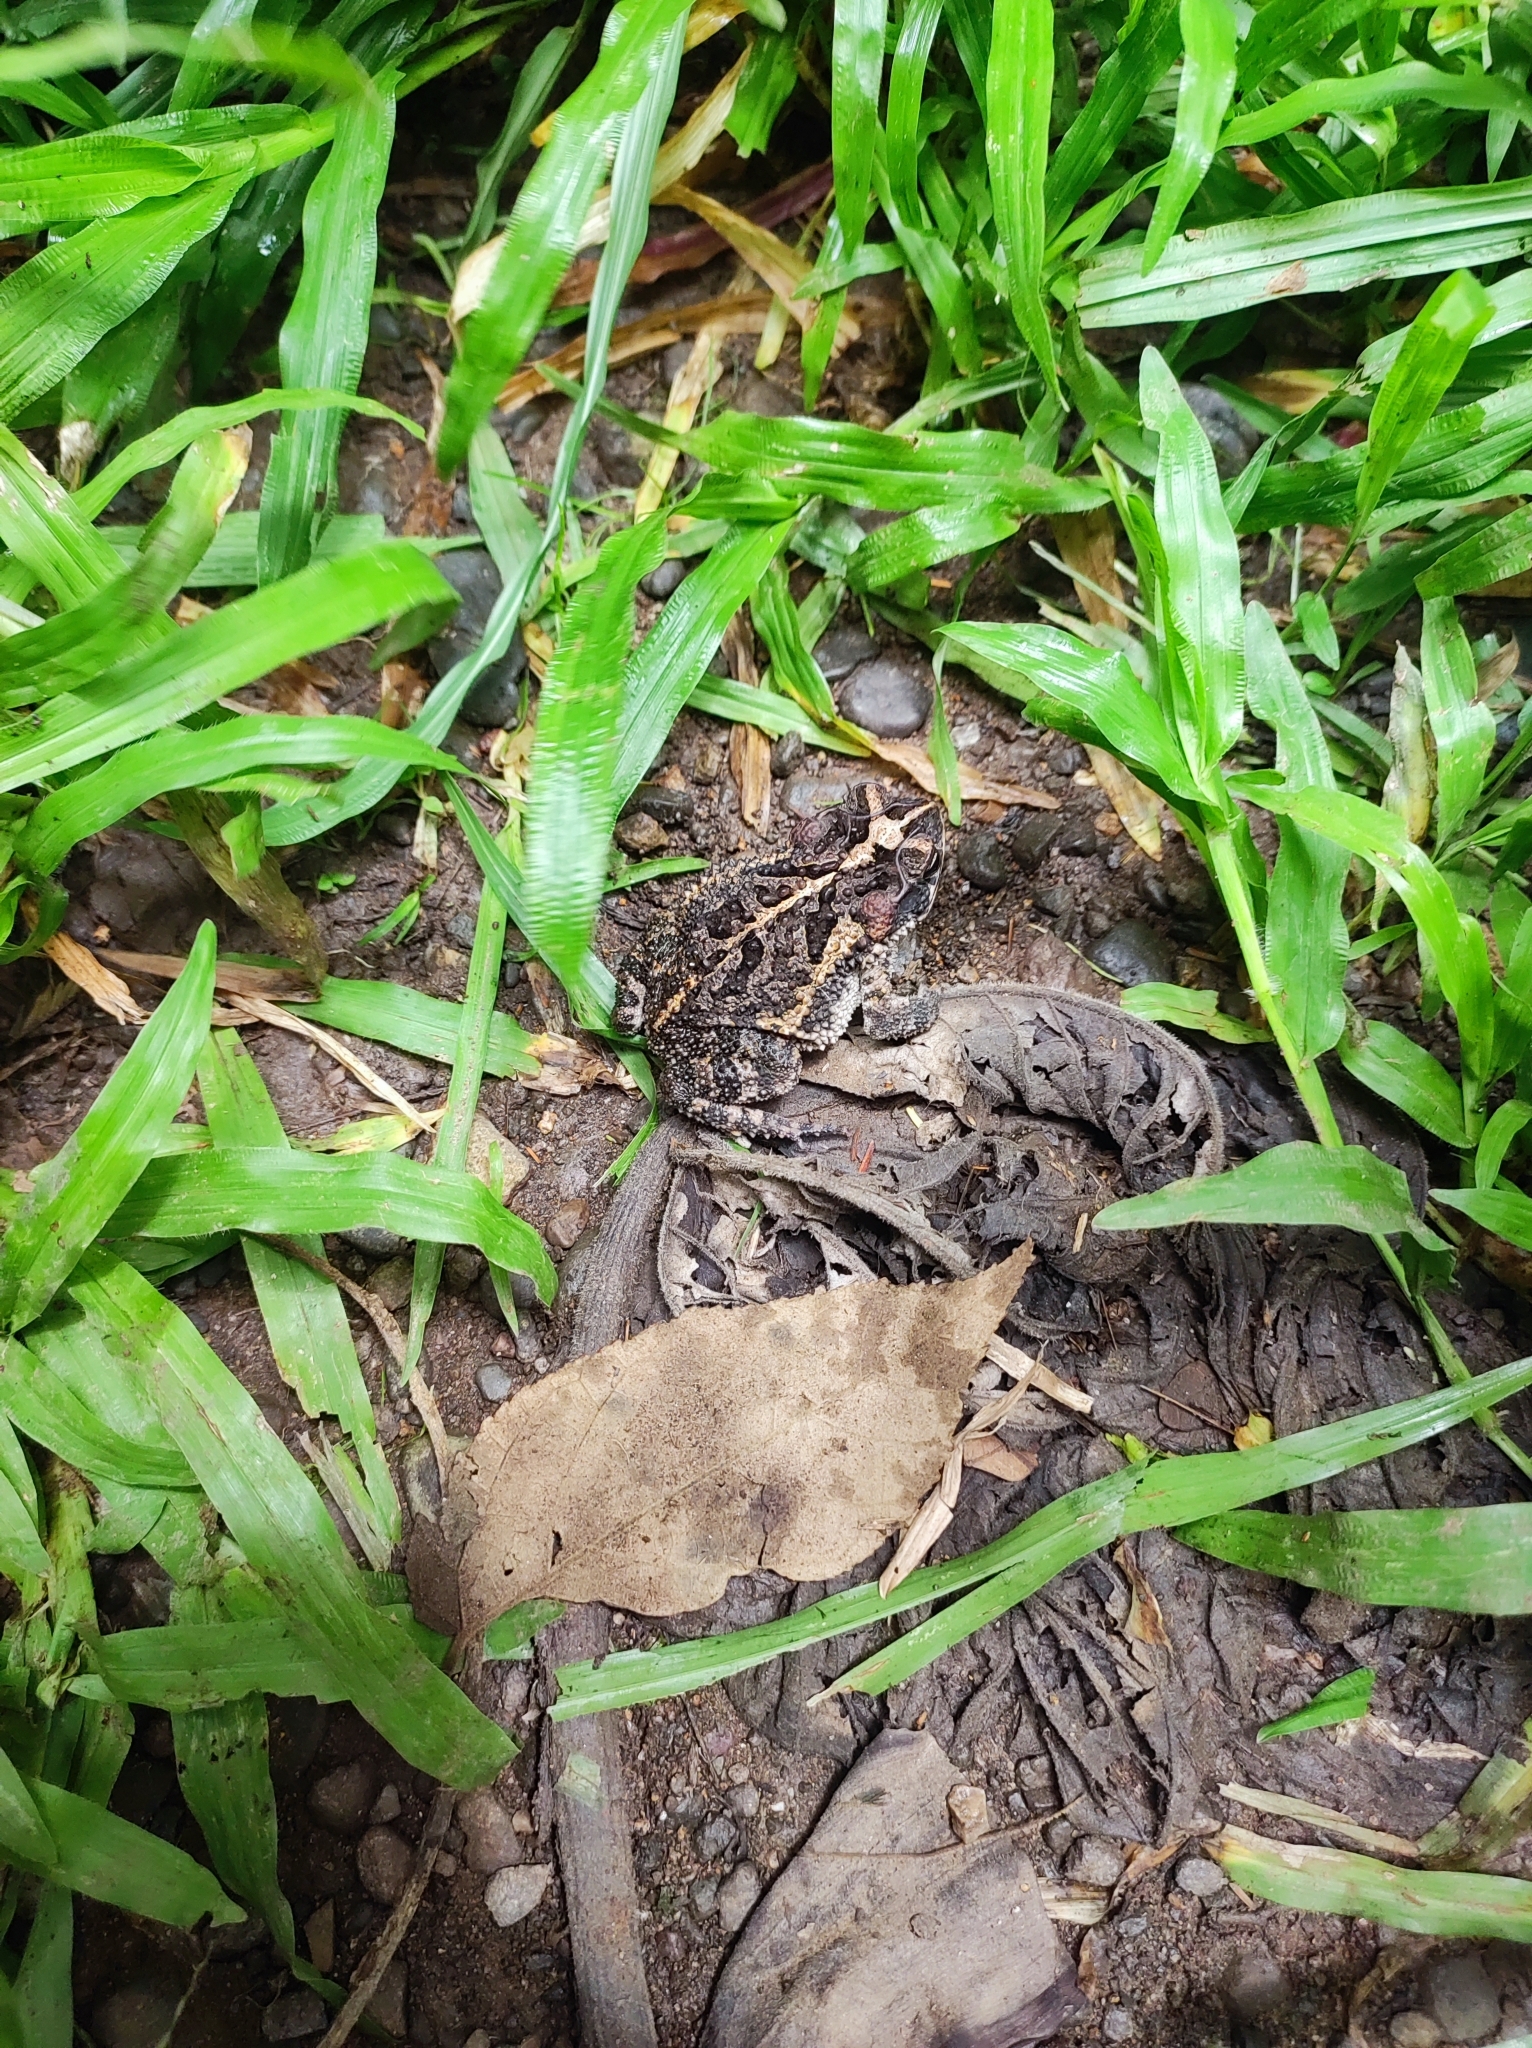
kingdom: Animalia
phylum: Chordata
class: Amphibia
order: Anura
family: Bufonidae
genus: Incilius
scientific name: Incilius coccifer
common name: Southern round-gland toad
